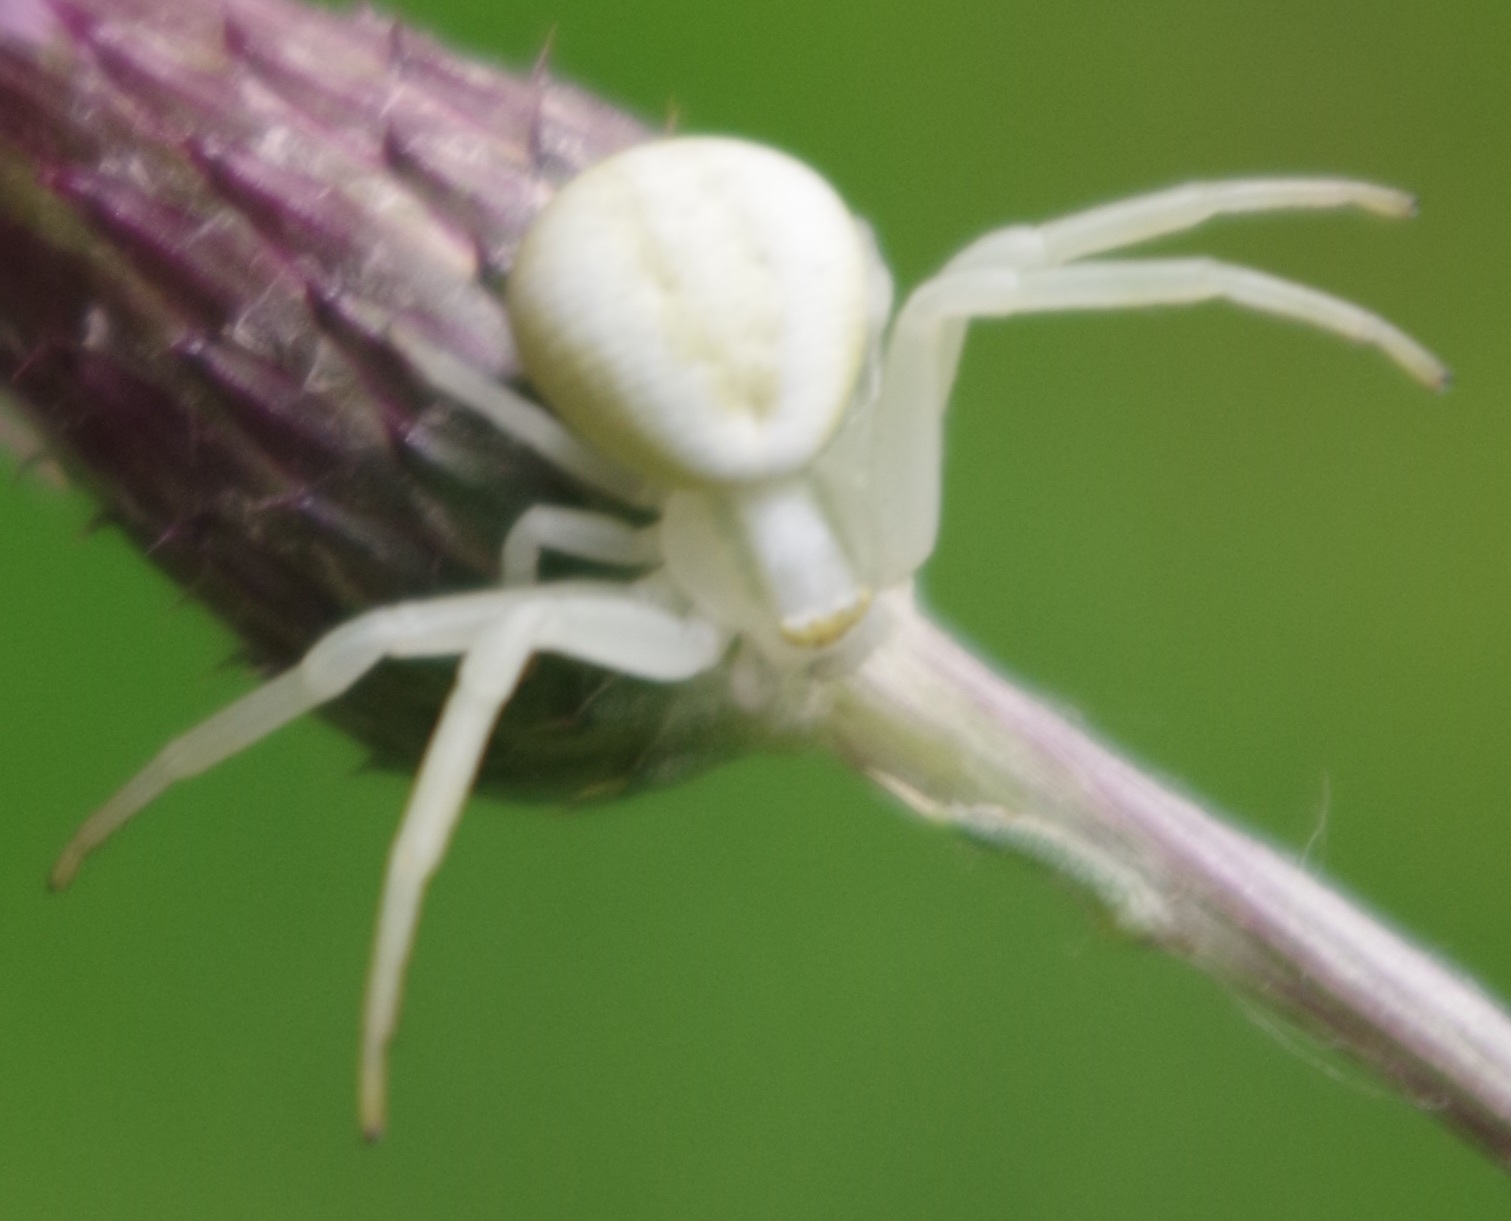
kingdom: Animalia
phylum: Arthropoda
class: Arachnida
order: Araneae
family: Thomisidae
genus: Misumena
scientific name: Misumena vatia
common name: Goldenrod crab spider
